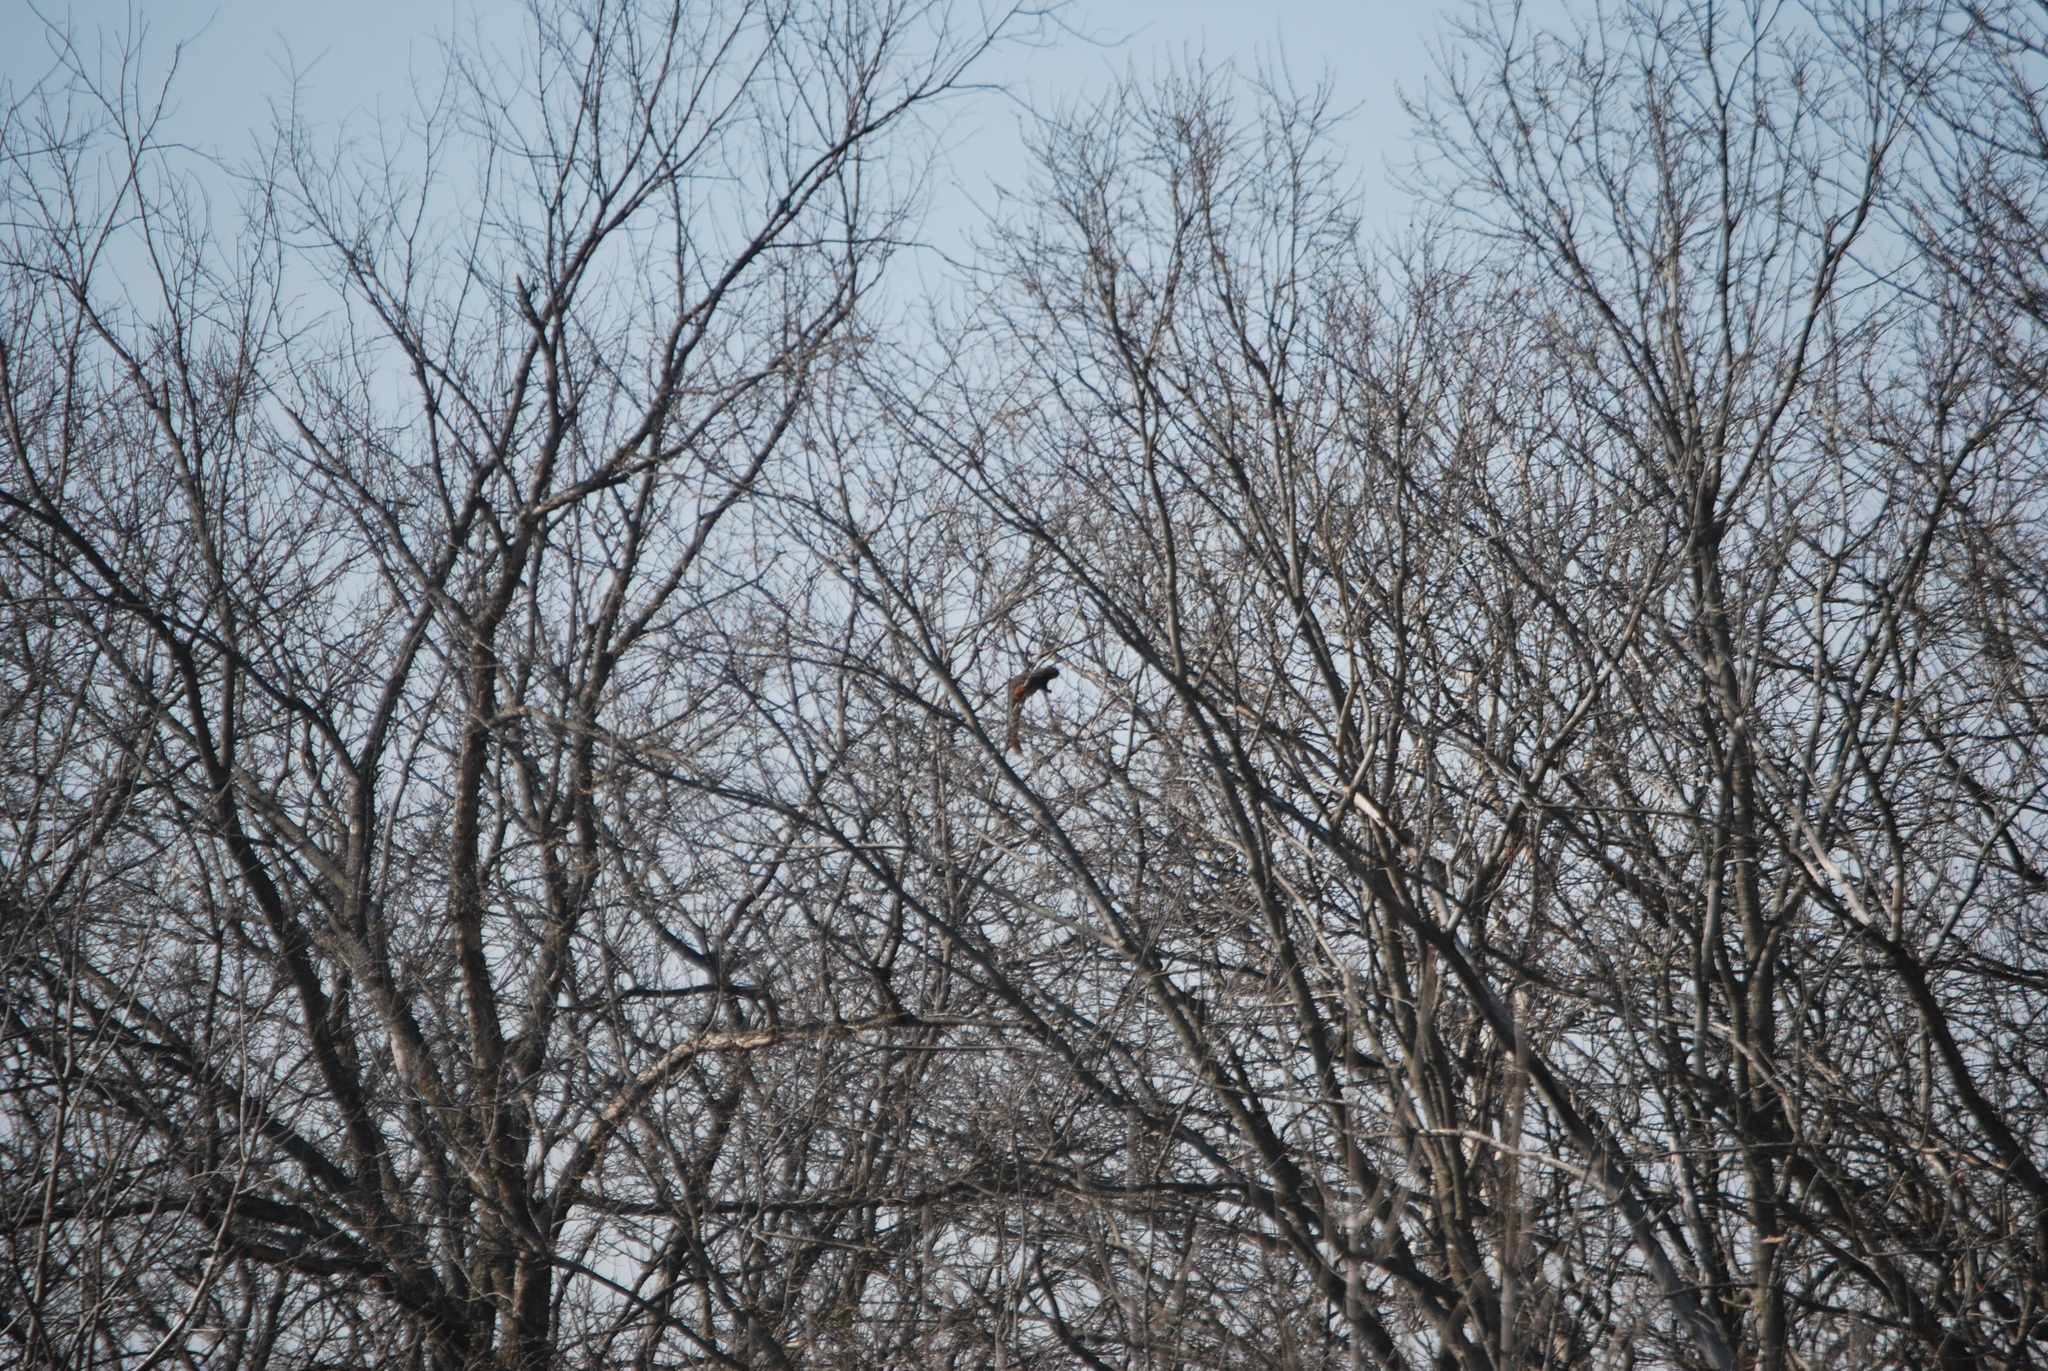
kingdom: Animalia
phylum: Chordata
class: Mammalia
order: Rodentia
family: Sciuridae
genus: Sciurus
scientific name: Sciurus niger
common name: Fox squirrel
